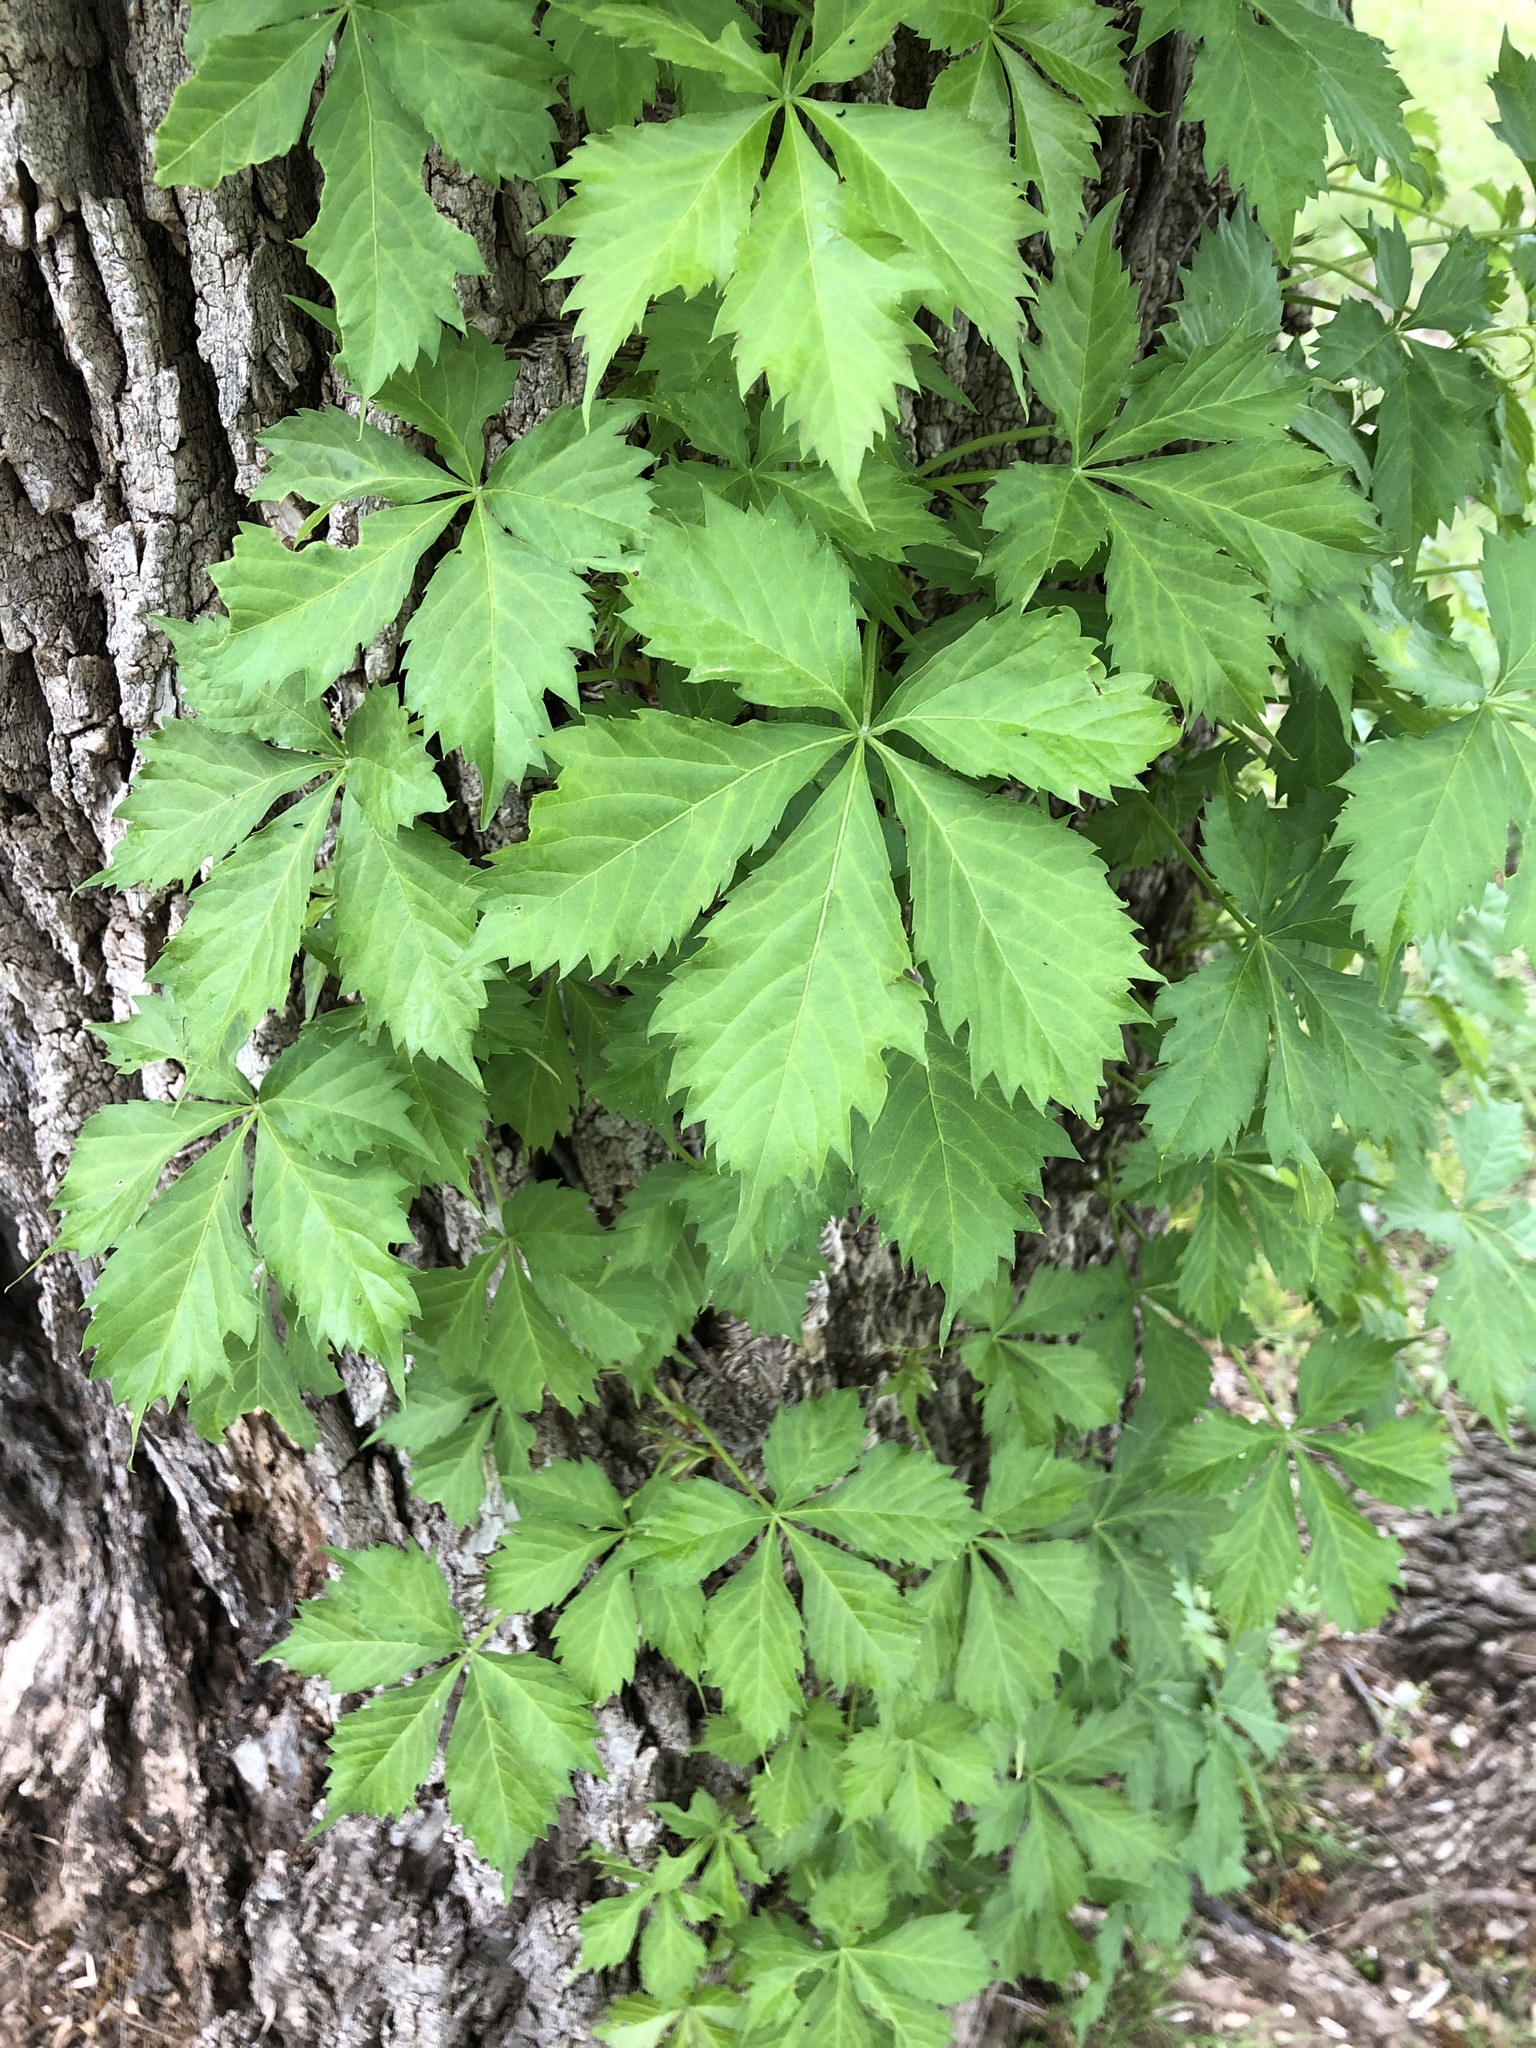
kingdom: Plantae
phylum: Tracheophyta
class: Magnoliopsida
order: Vitales
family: Vitaceae
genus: Parthenocissus
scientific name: Parthenocissus quinquefolia
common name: Virginia-creeper
